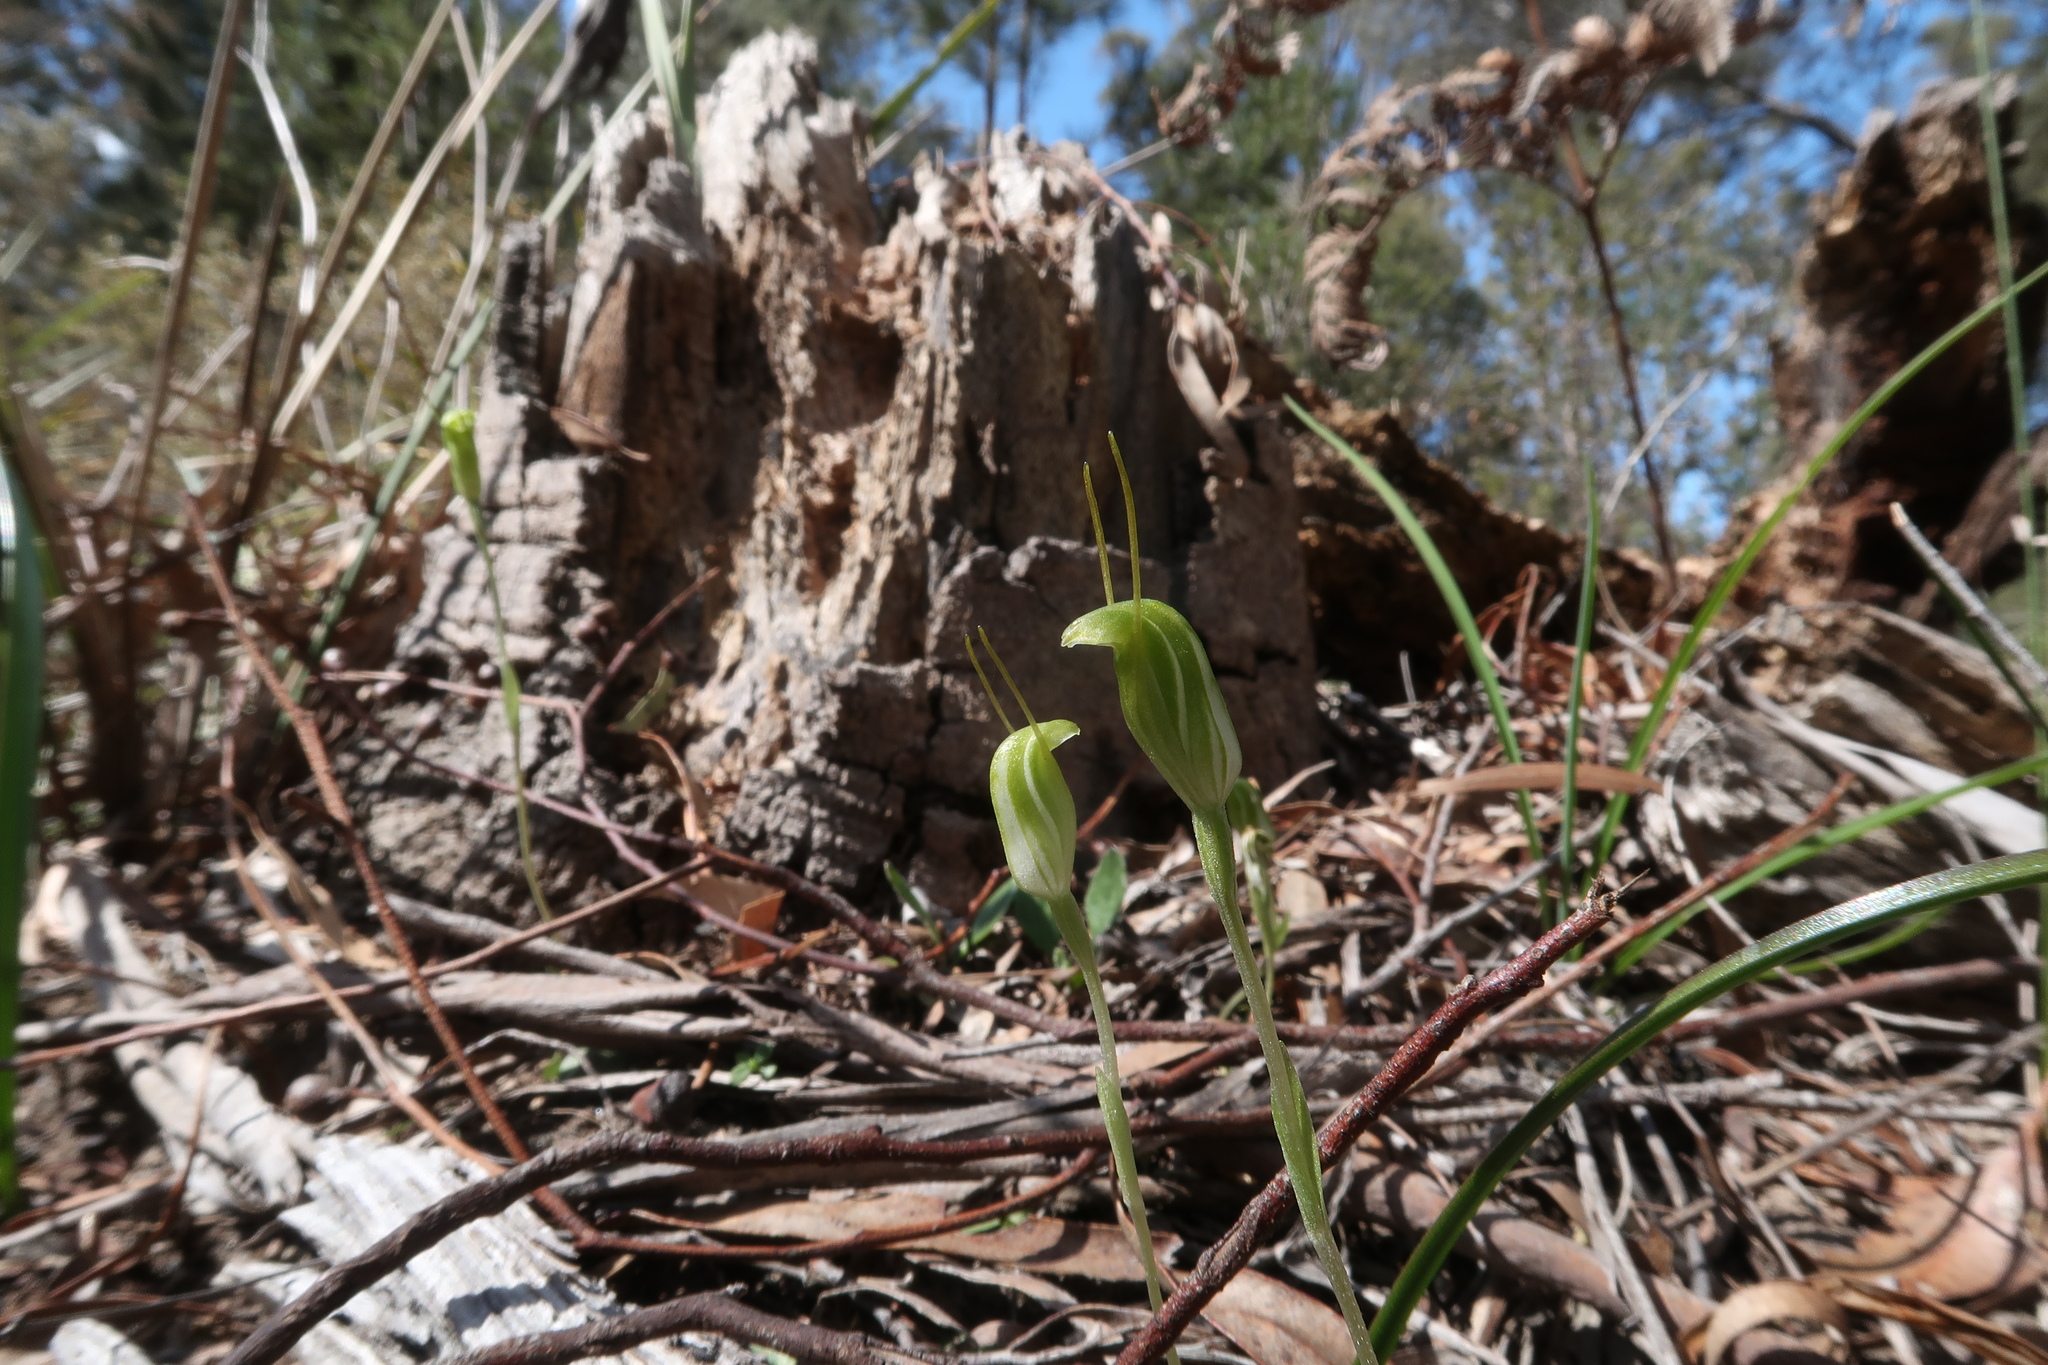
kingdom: Plantae
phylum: Tracheophyta
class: Liliopsida
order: Asparagales
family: Orchidaceae
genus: Pterostylis
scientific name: Pterostylis nana
